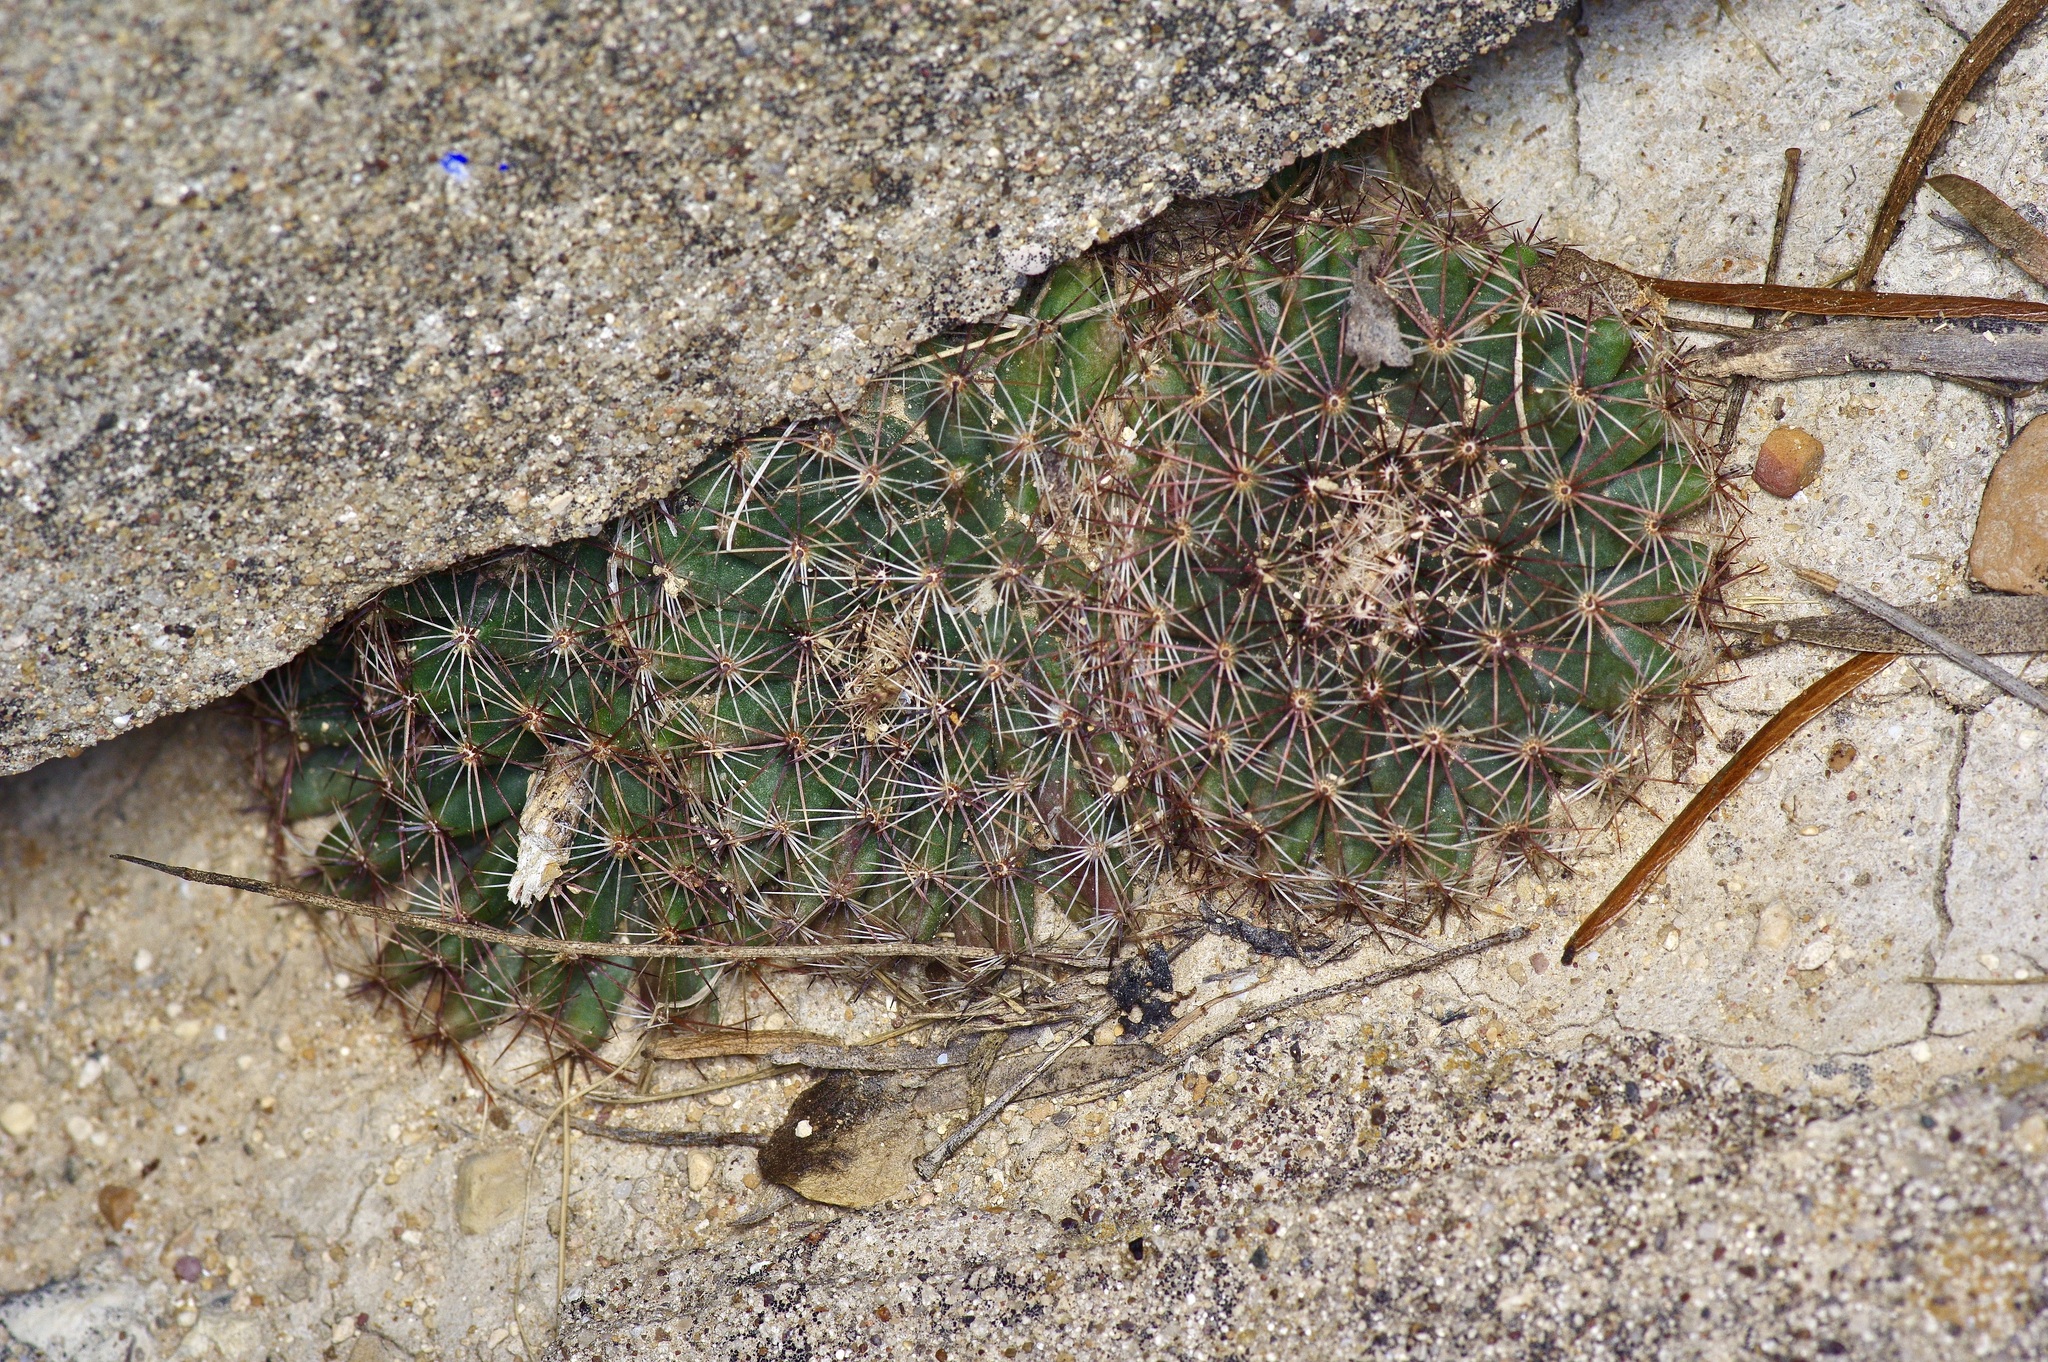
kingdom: Plantae
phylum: Tracheophyta
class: Magnoliopsida
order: Caryophyllales
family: Cactaceae
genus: Mammillaria
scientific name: Mammillaria heyderi
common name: Little nipple cactus
